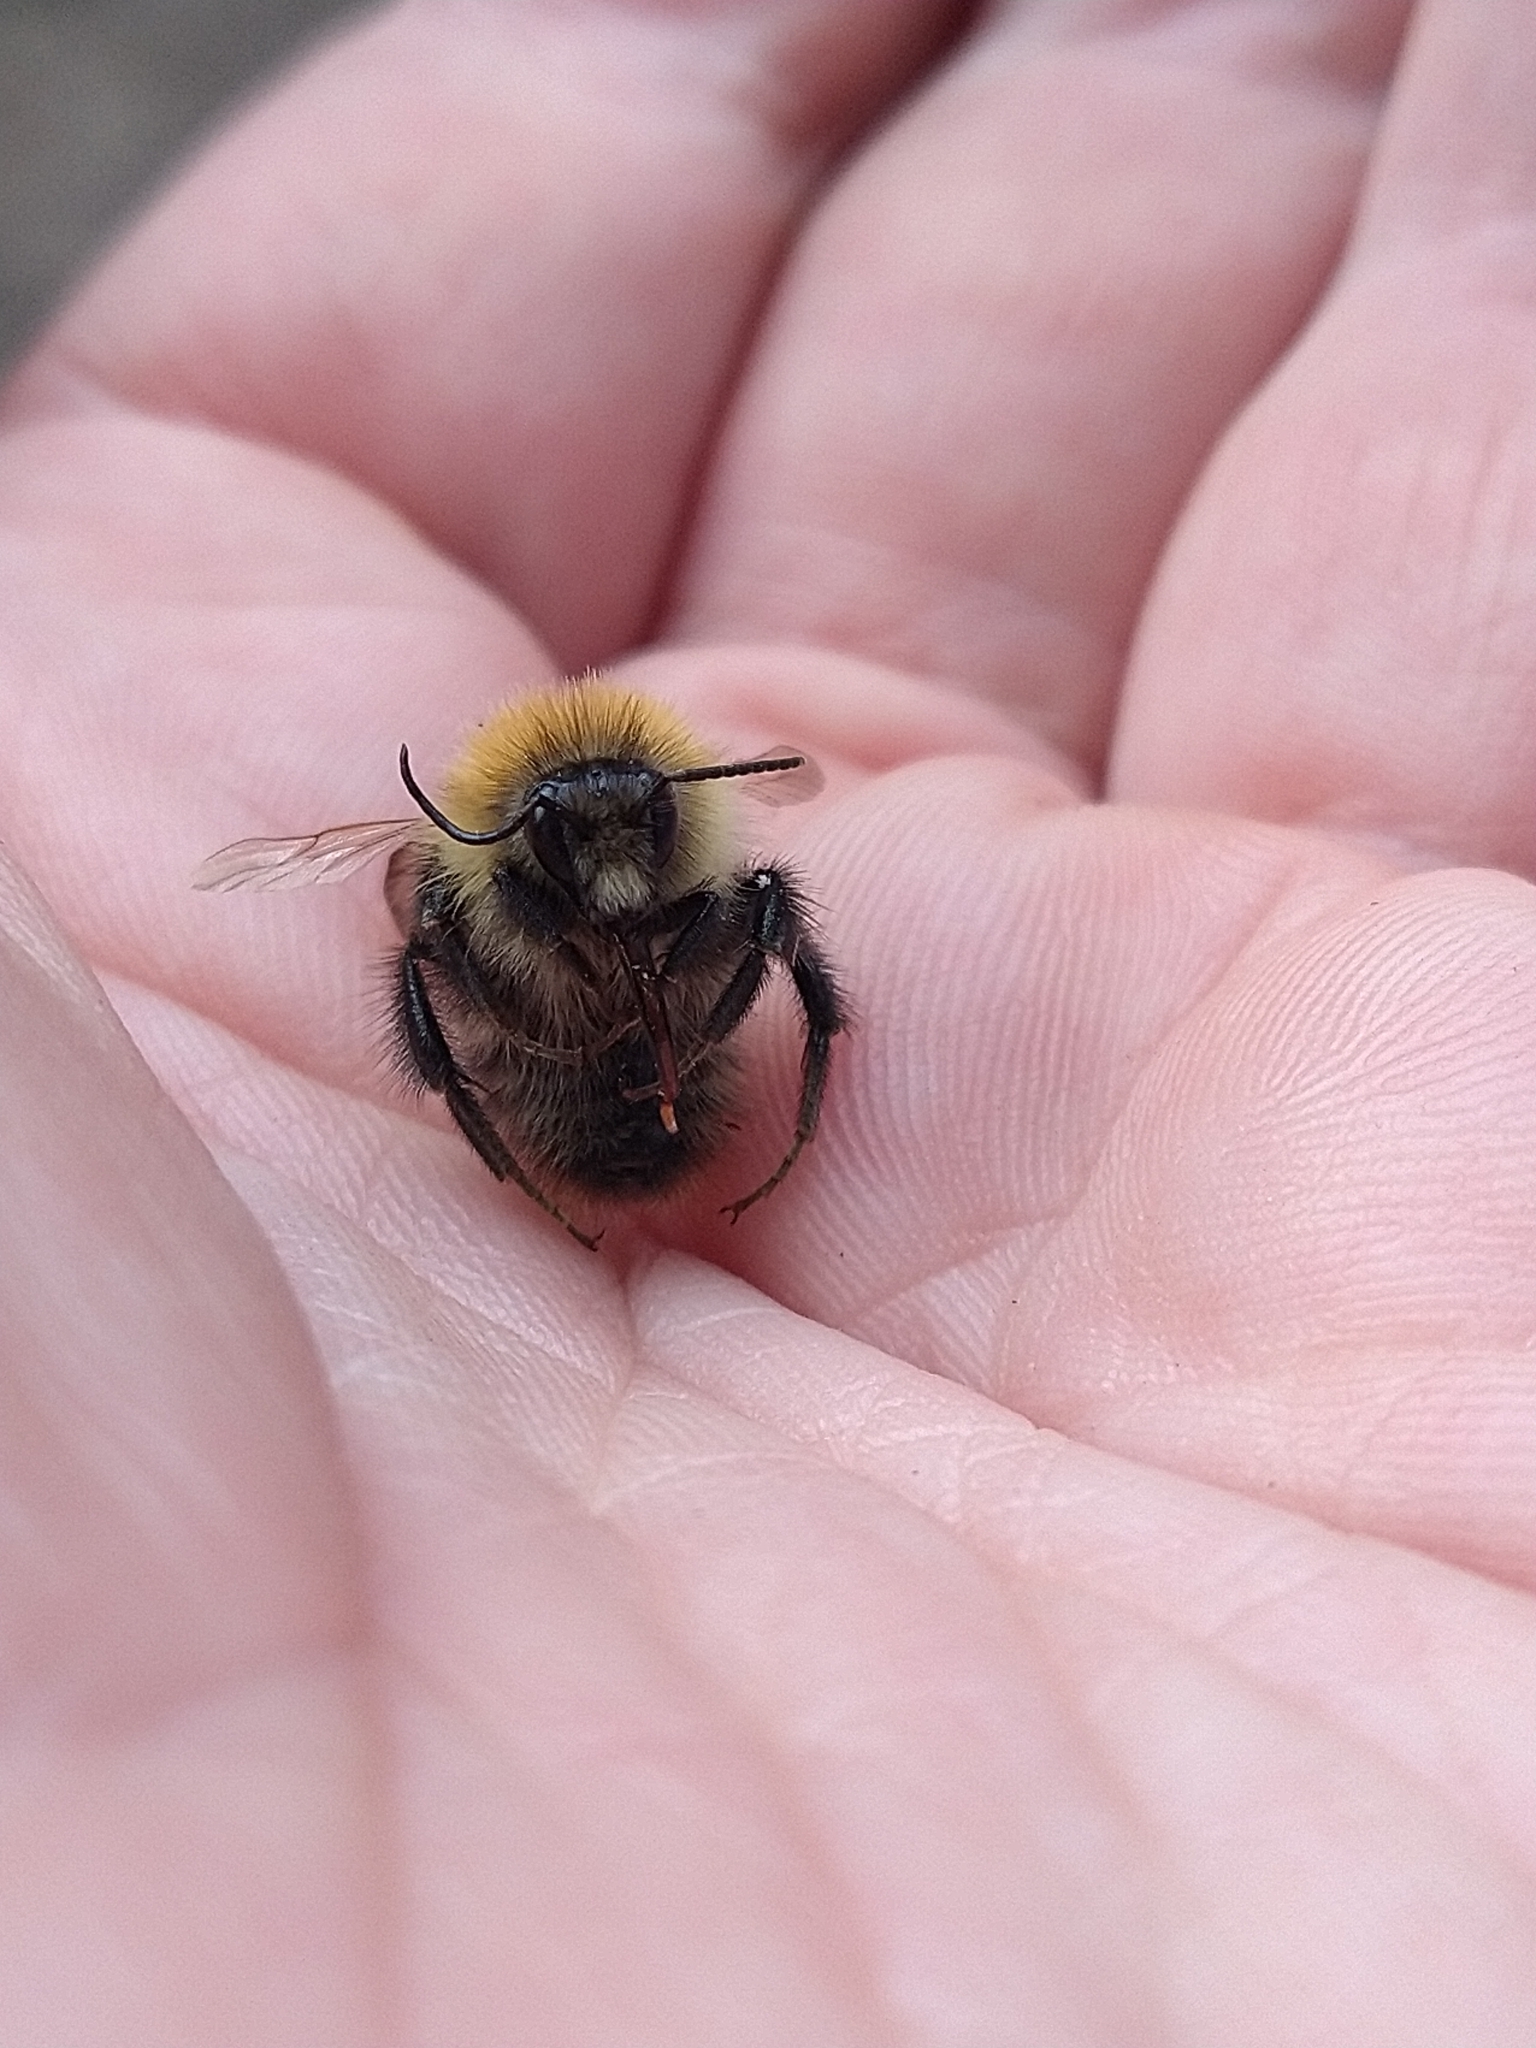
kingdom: Animalia
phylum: Arthropoda
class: Insecta
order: Hymenoptera
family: Apidae
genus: Bombus
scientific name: Bombus pascuorum
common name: Common carder bee
